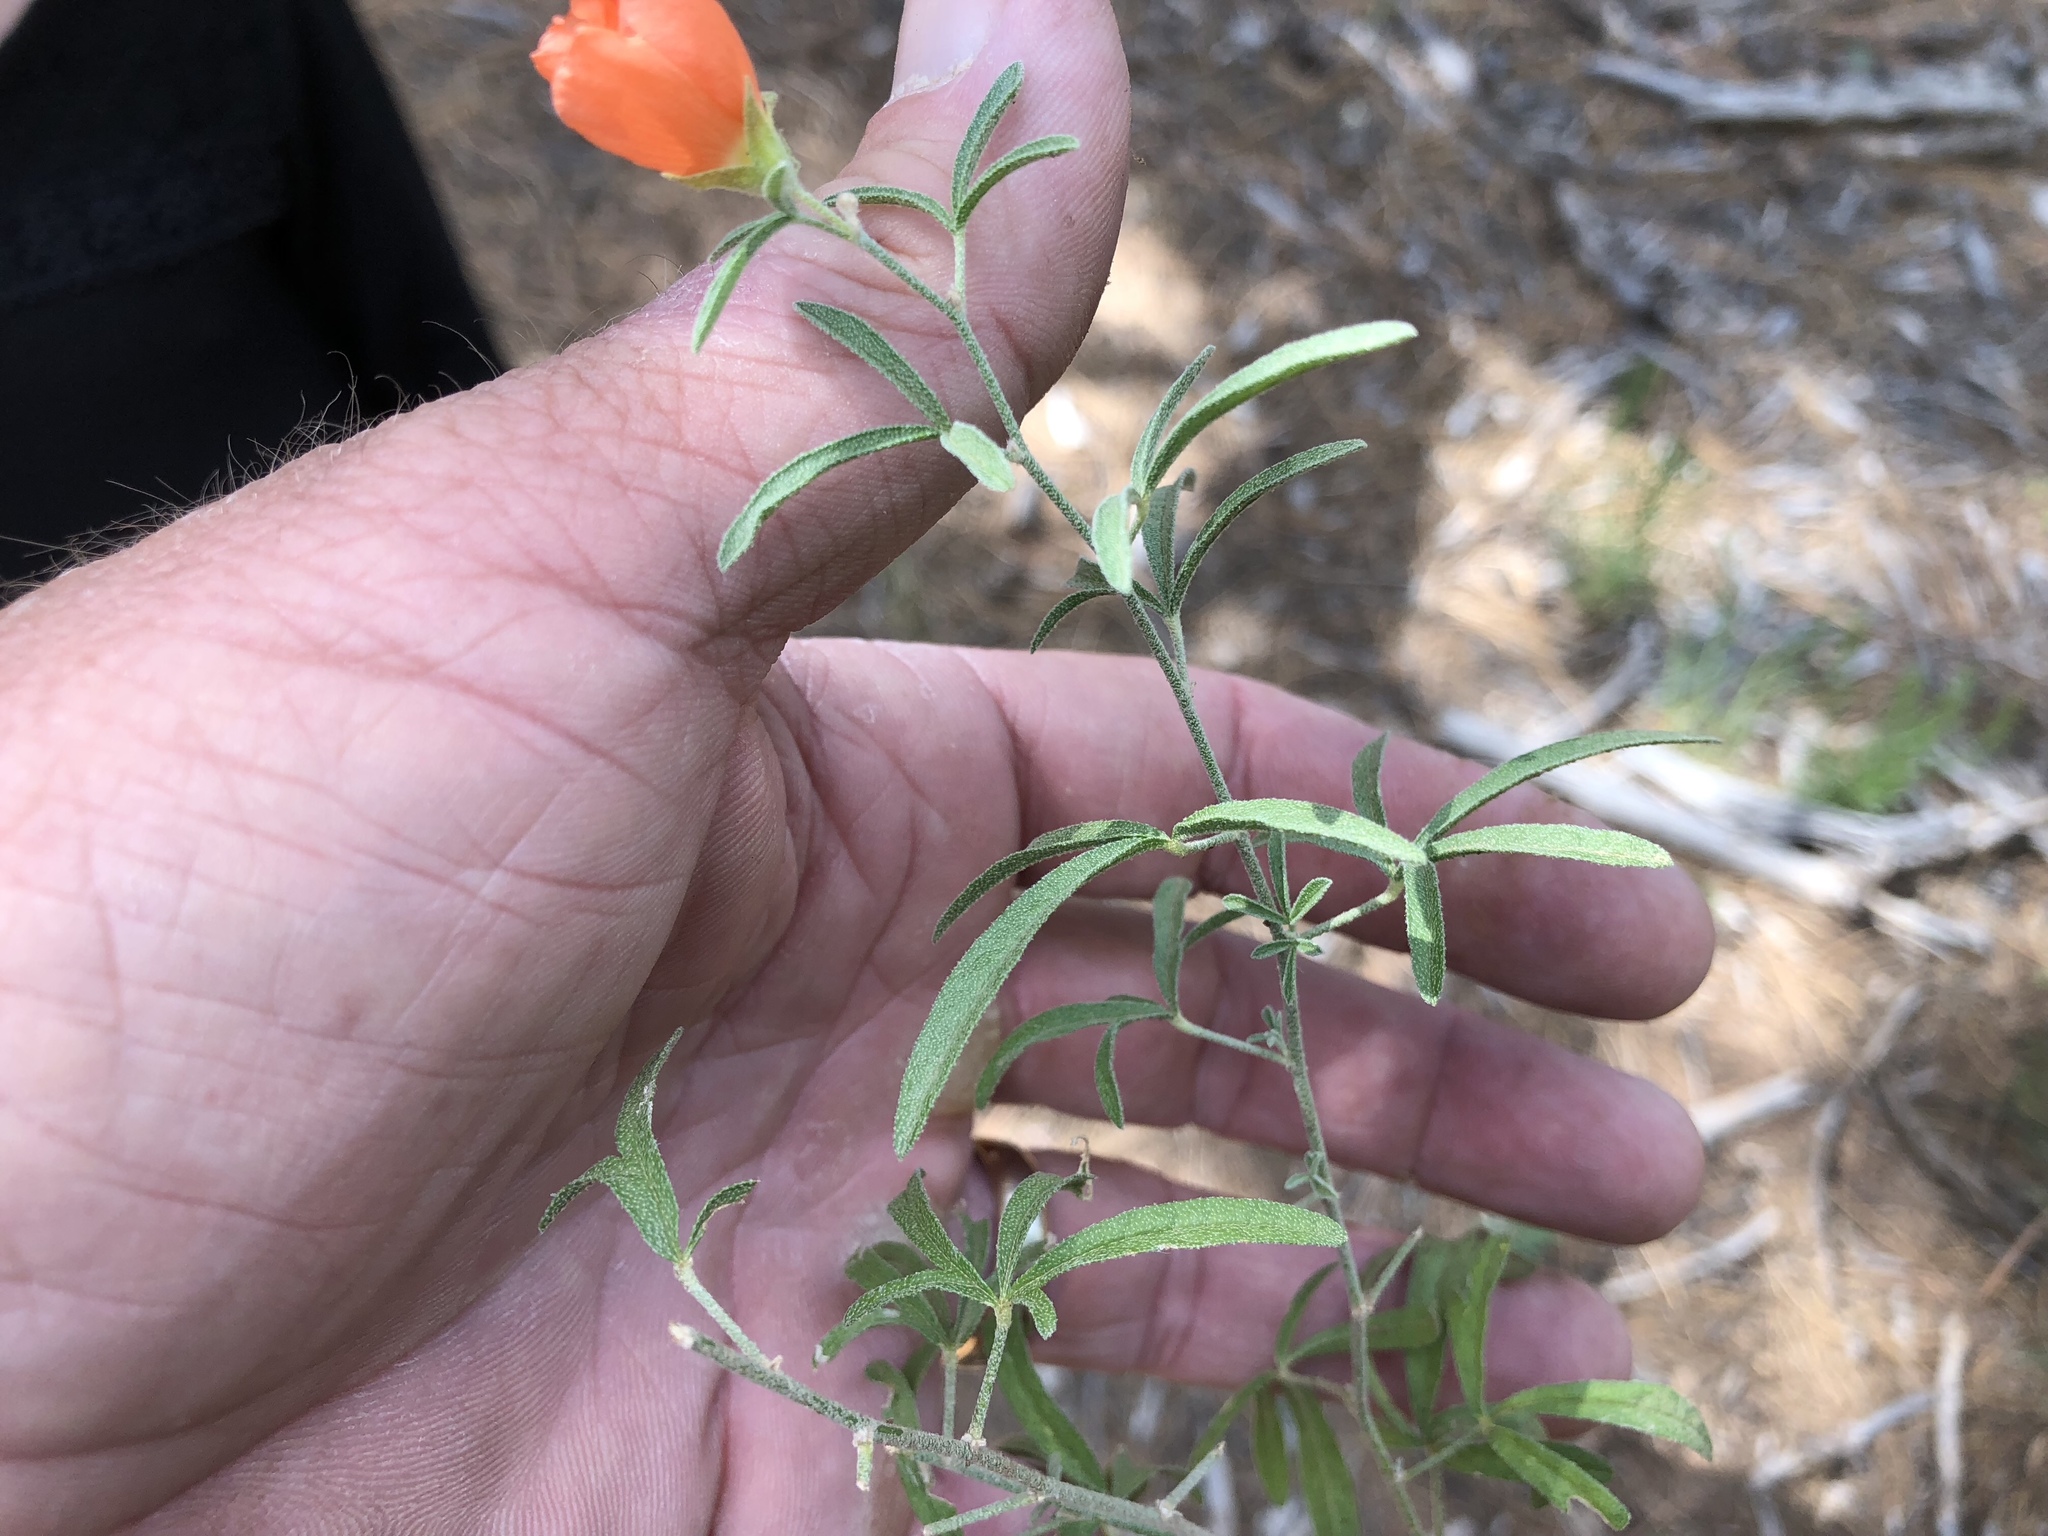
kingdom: Plantae
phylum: Tracheophyta
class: Magnoliopsida
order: Malvales
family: Malvaceae
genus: Sphaeralcea
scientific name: Sphaeralcea digitata
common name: Juniper-gobe-mallow
